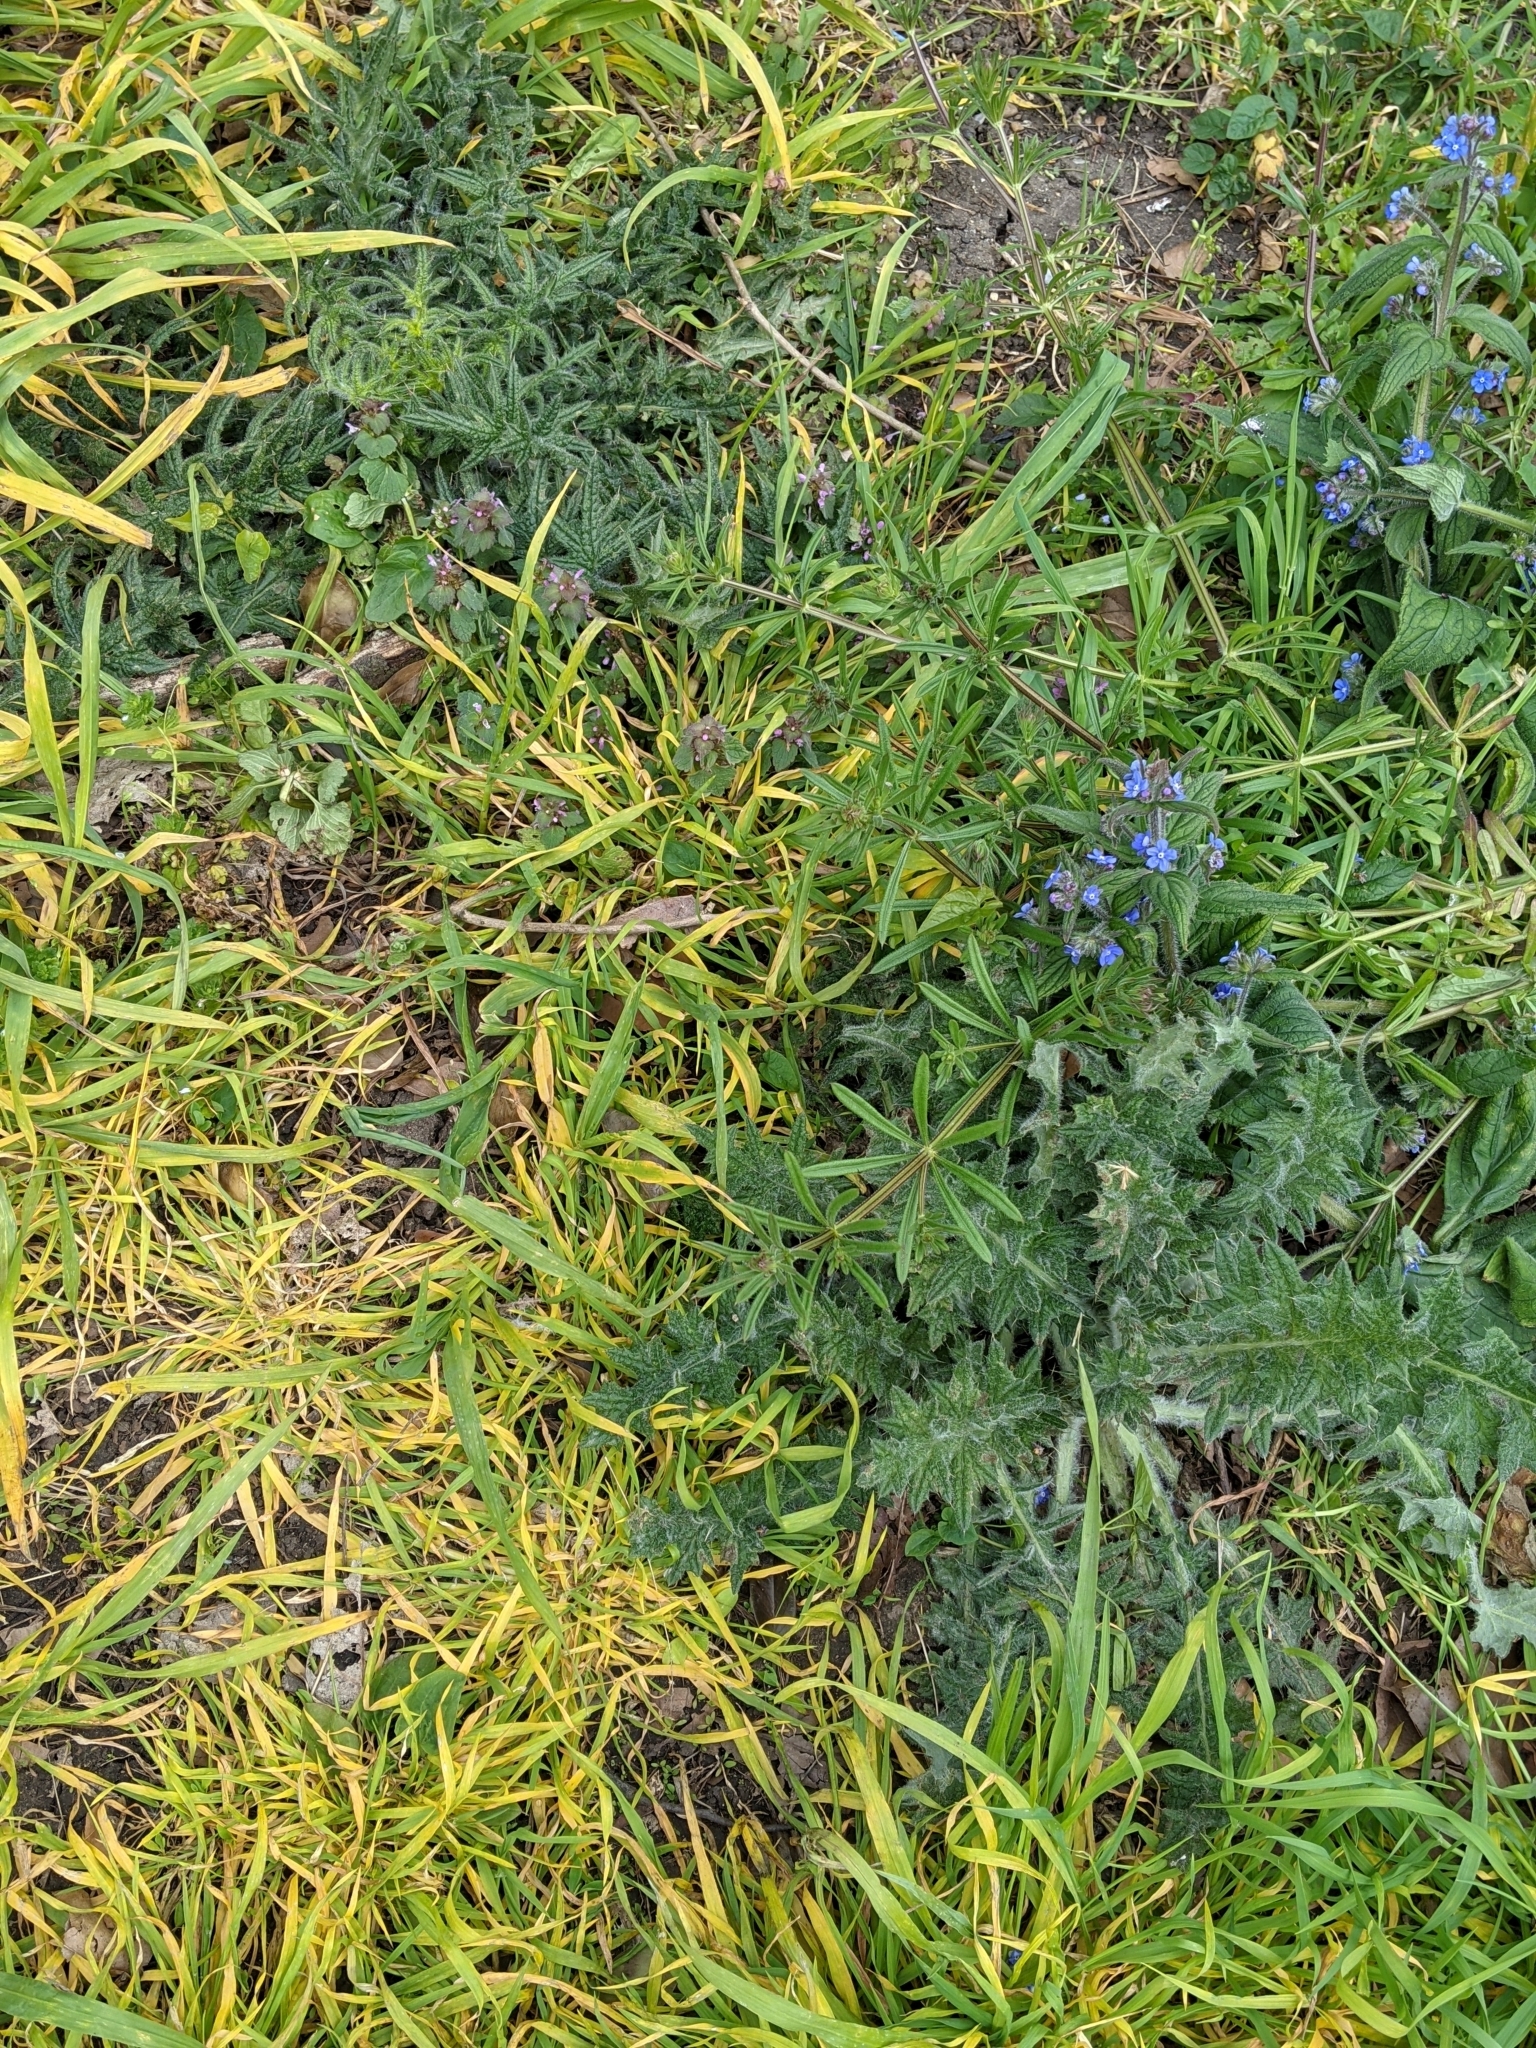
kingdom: Plantae
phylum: Tracheophyta
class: Magnoliopsida
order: Asterales
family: Asteraceae
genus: Cirsium
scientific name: Cirsium vulgare
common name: Bull thistle
